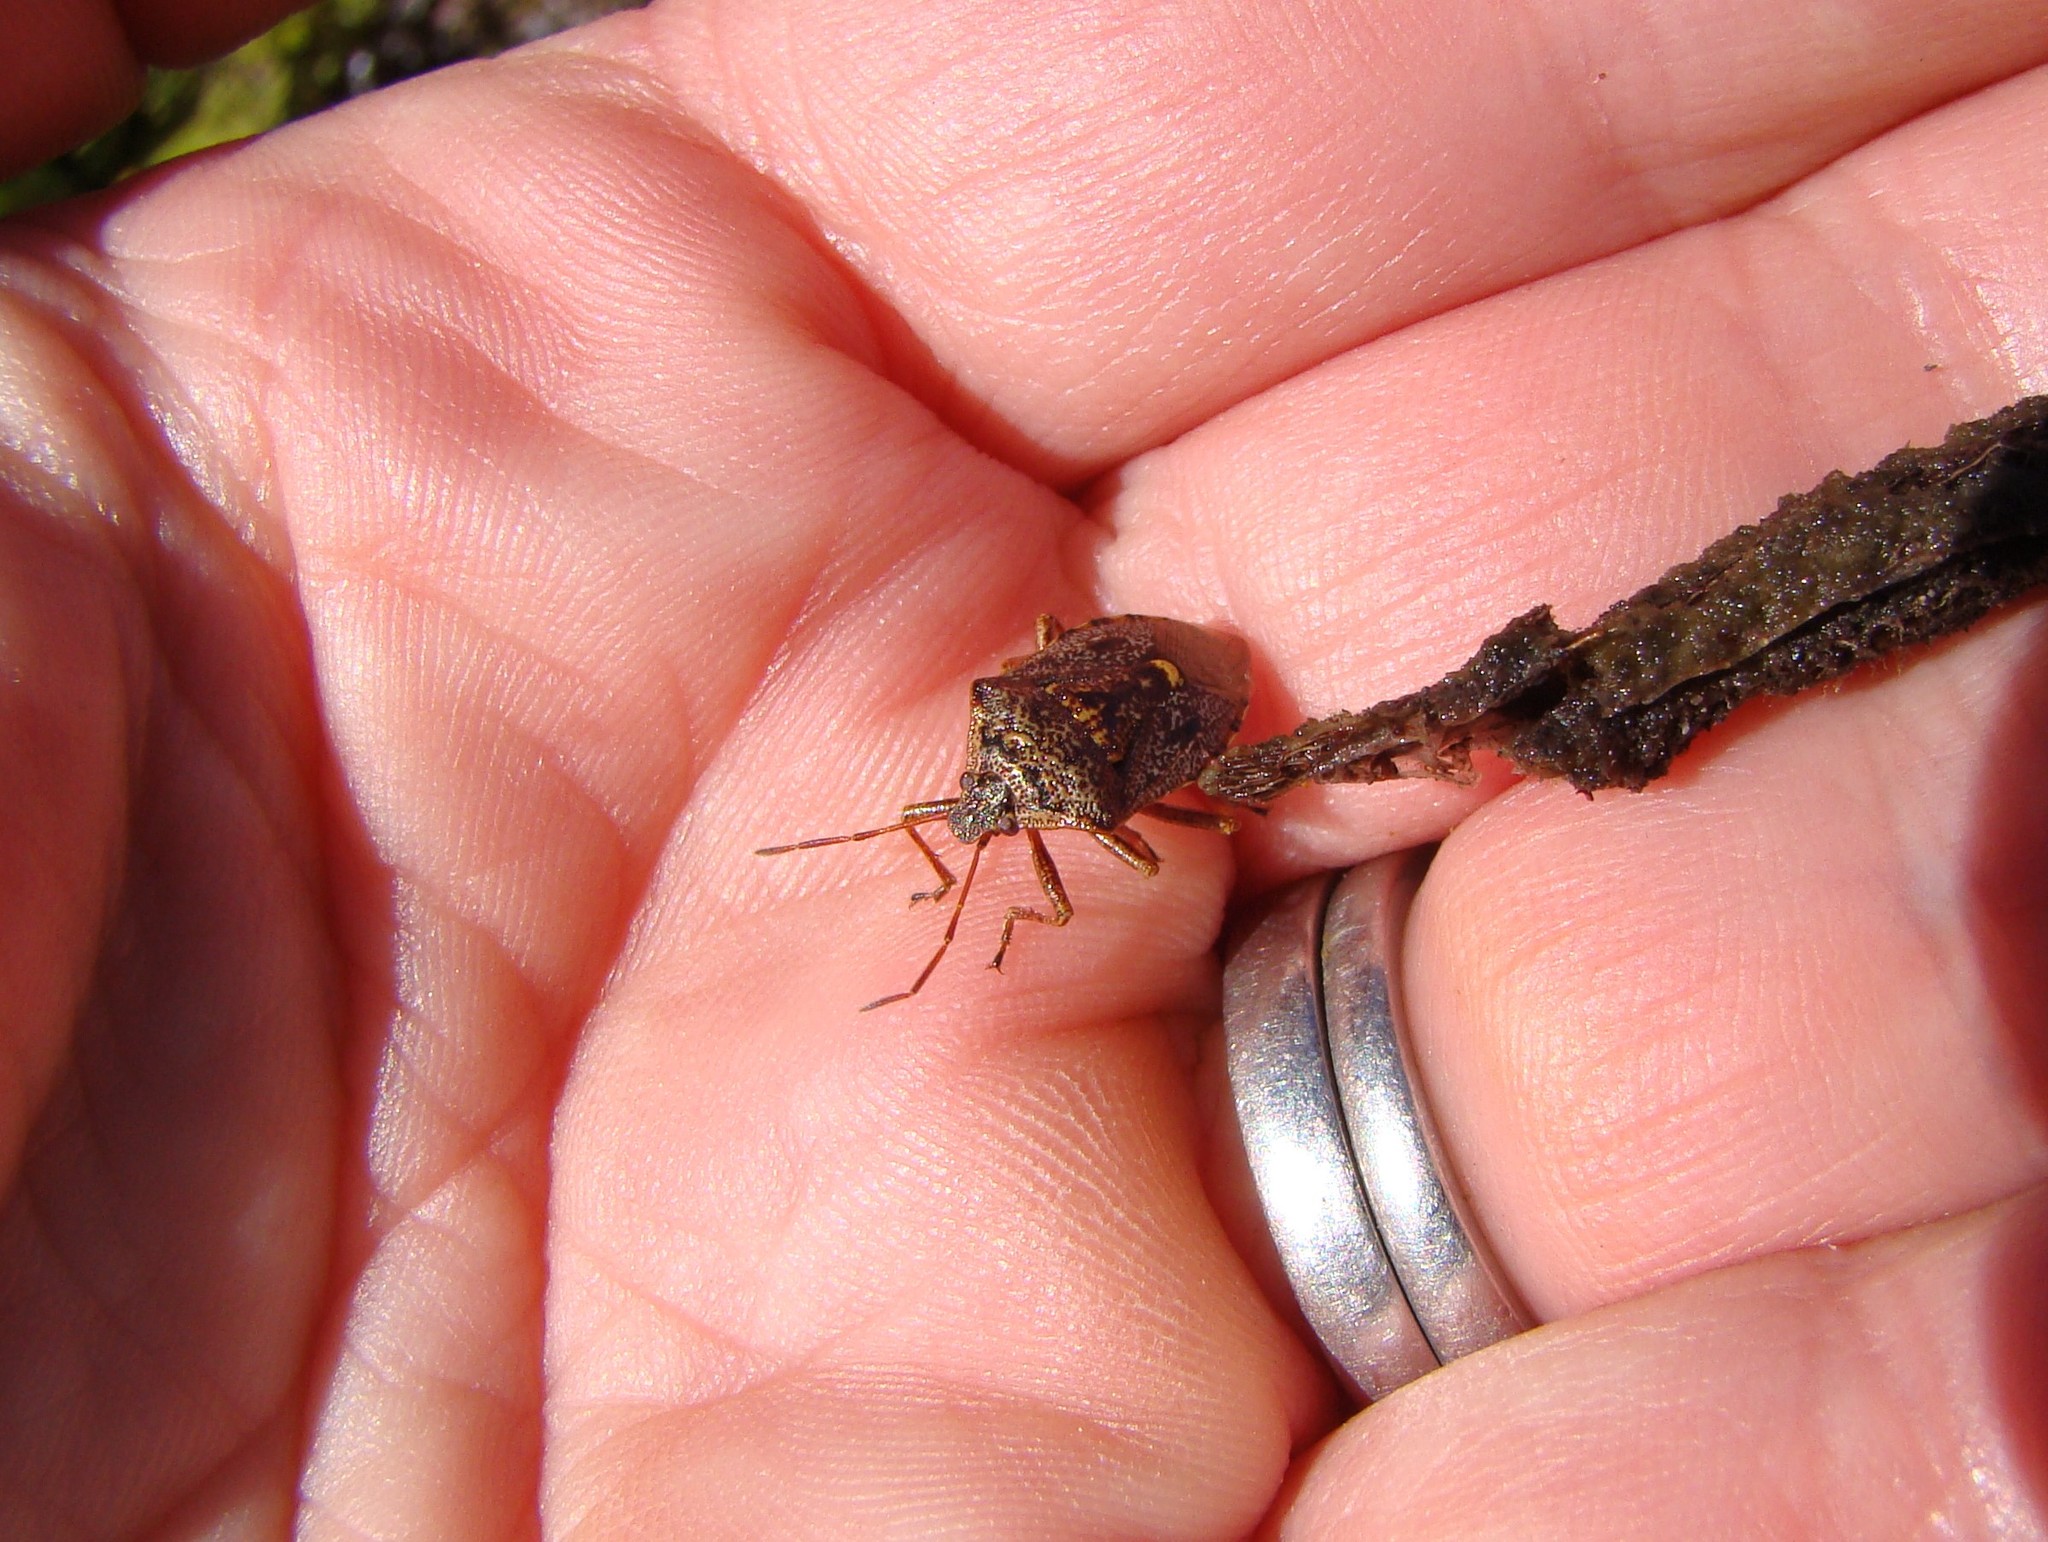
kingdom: Animalia
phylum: Arthropoda
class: Insecta
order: Hemiptera
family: Pentatomidae
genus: Cermatulus
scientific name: Cermatulus nasalis
